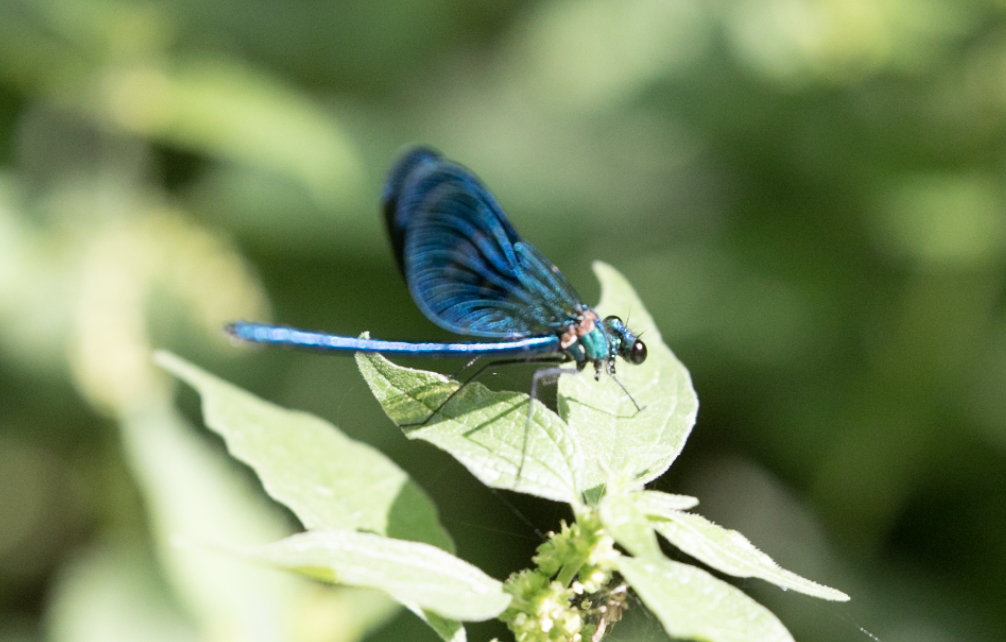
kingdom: Animalia
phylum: Arthropoda
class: Insecta
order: Odonata
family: Calopterygidae
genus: Calopteryx
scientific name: Calopteryx splendens
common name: Banded demoiselle
